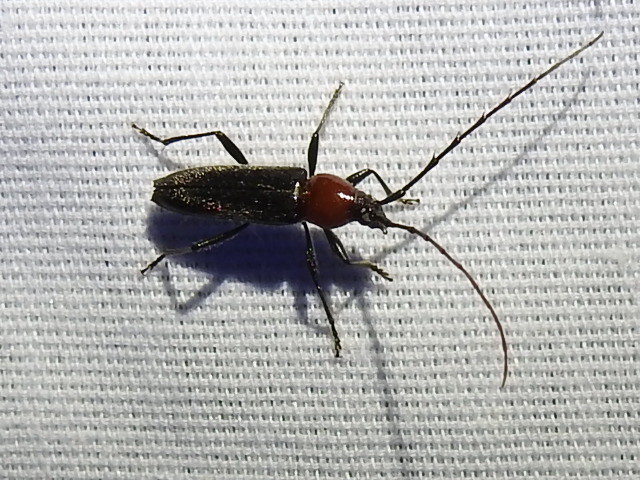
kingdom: Animalia
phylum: Arthropoda
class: Insecta
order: Coleoptera
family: Cerambycidae
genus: Stenosphenus
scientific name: Stenosphenus dolosus
